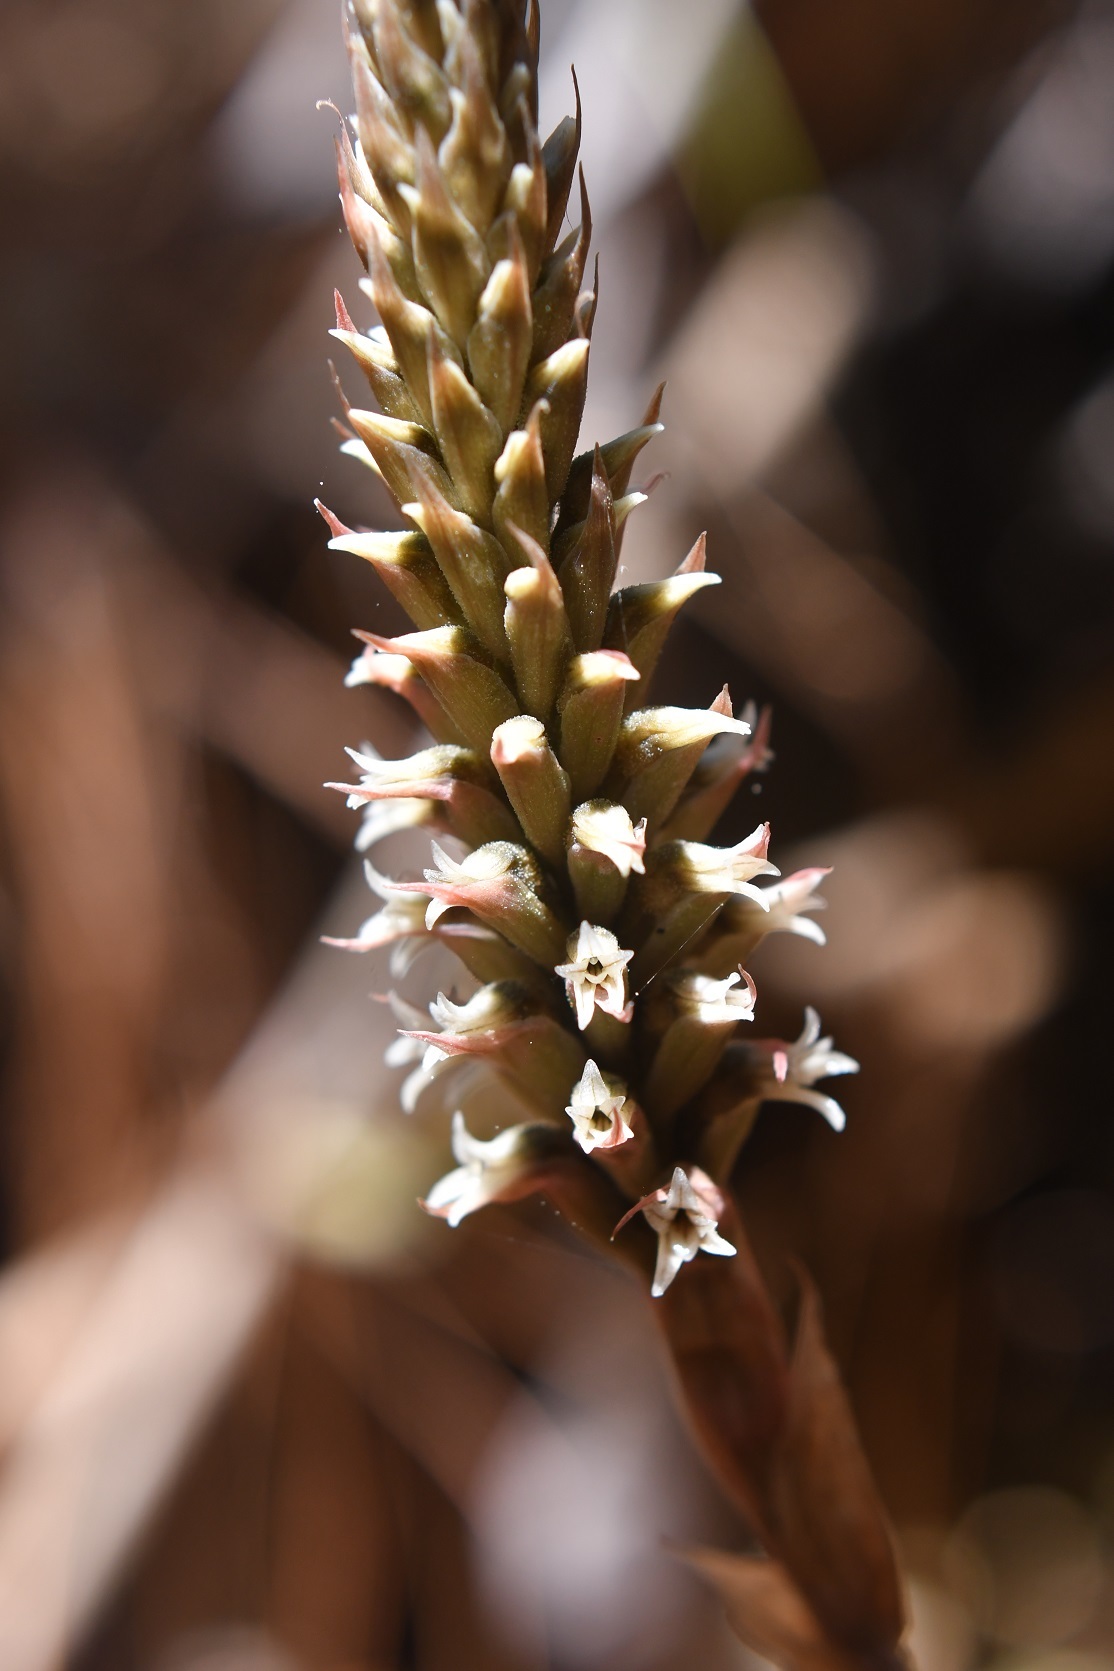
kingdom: Plantae
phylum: Tracheophyta
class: Liliopsida
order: Asparagales
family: Orchidaceae
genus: Aulosepalum
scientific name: Aulosepalum pyramidale
